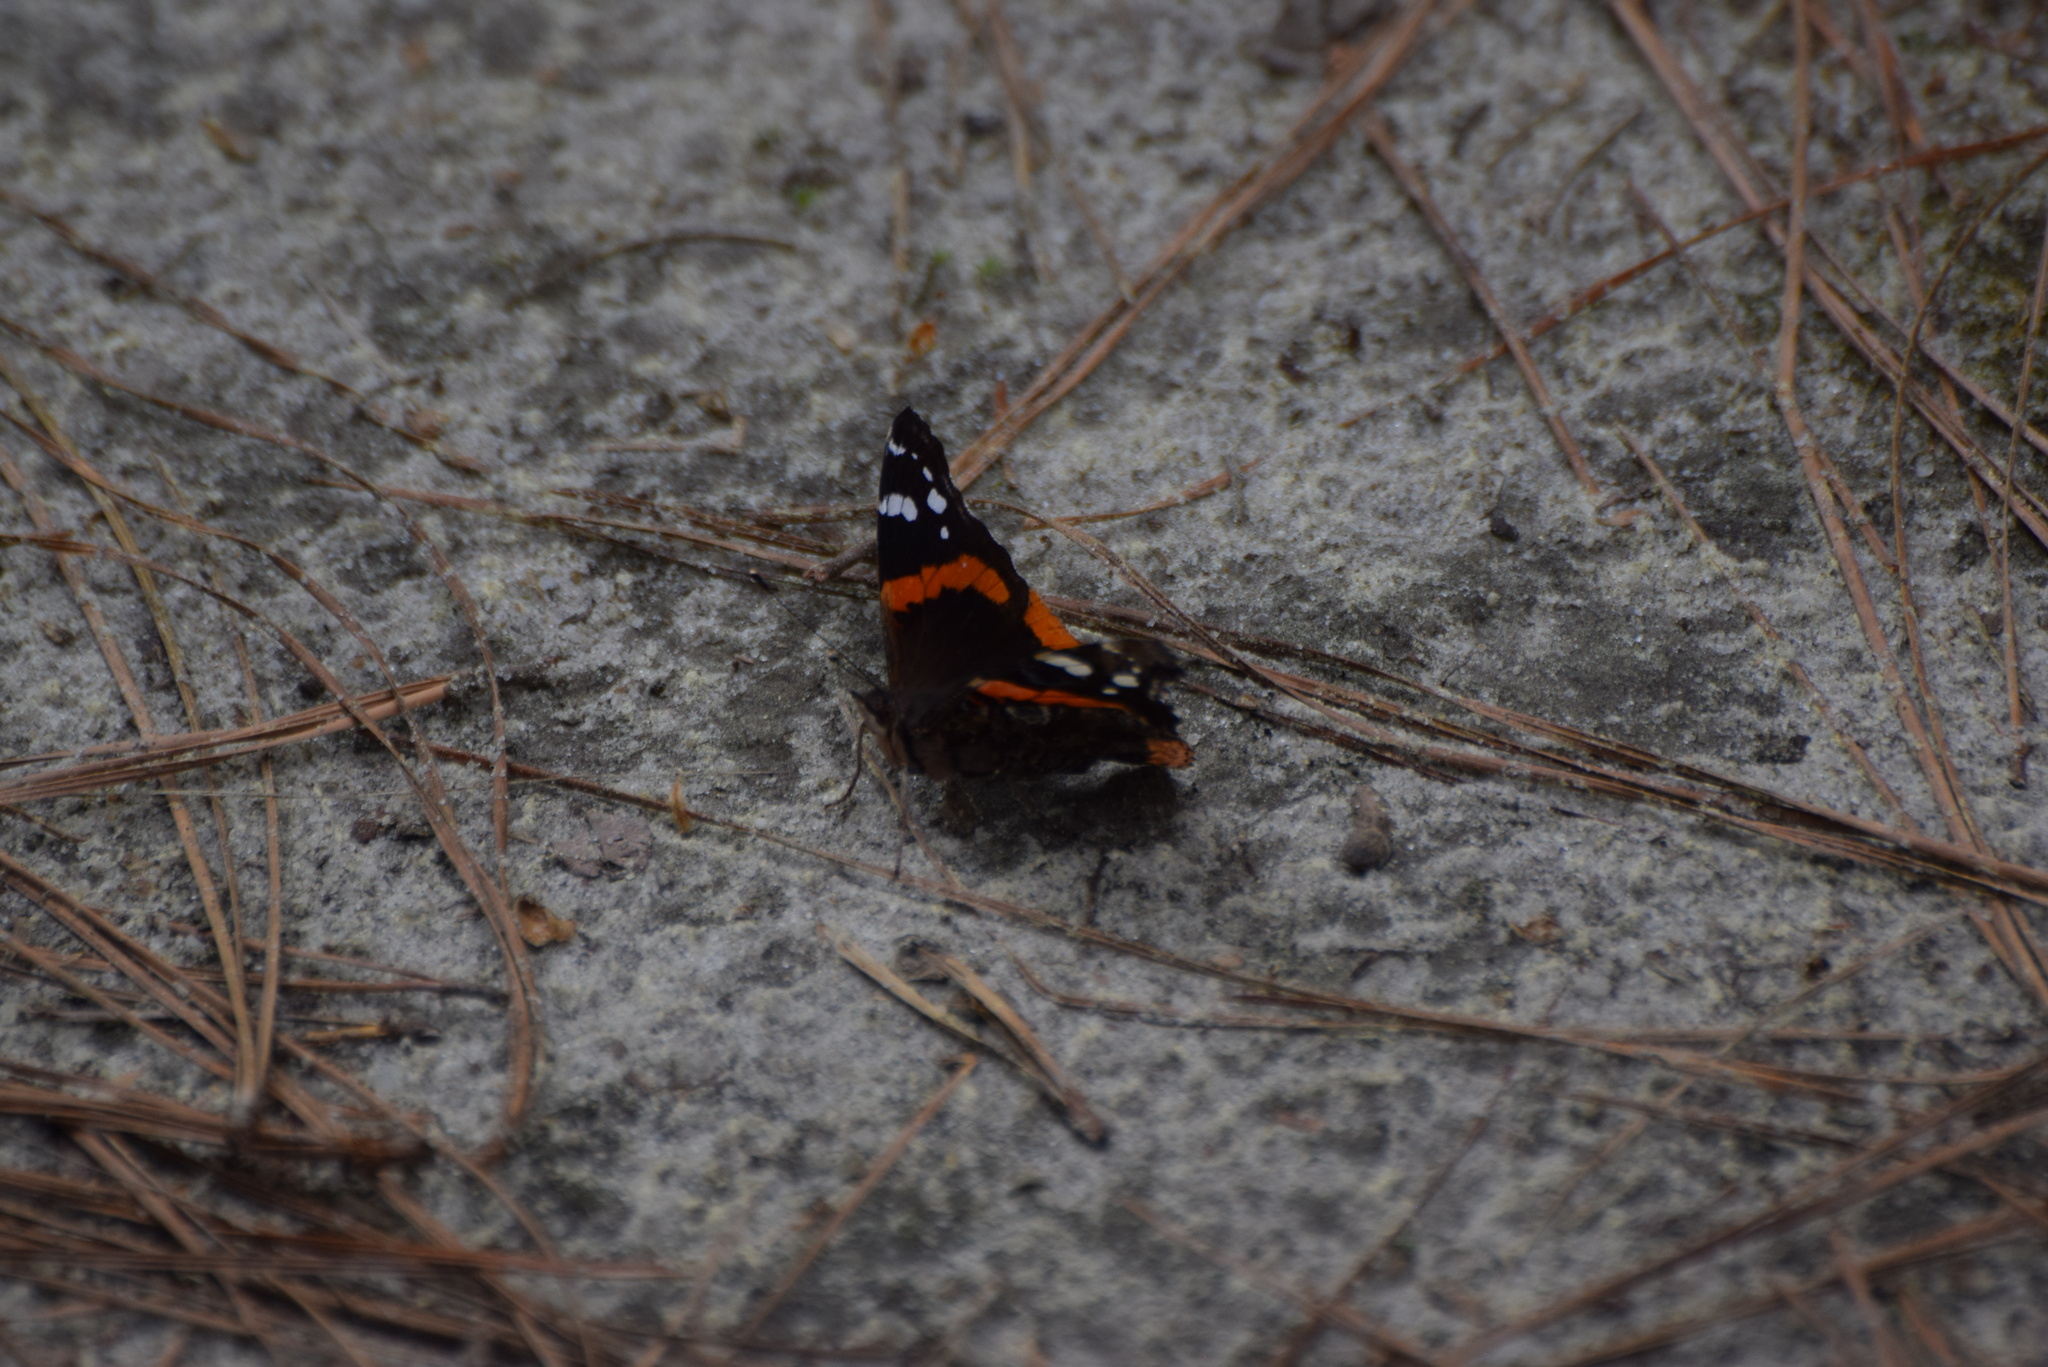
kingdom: Animalia
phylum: Arthropoda
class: Insecta
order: Lepidoptera
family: Nymphalidae
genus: Vanessa
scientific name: Vanessa atalanta
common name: Red admiral
